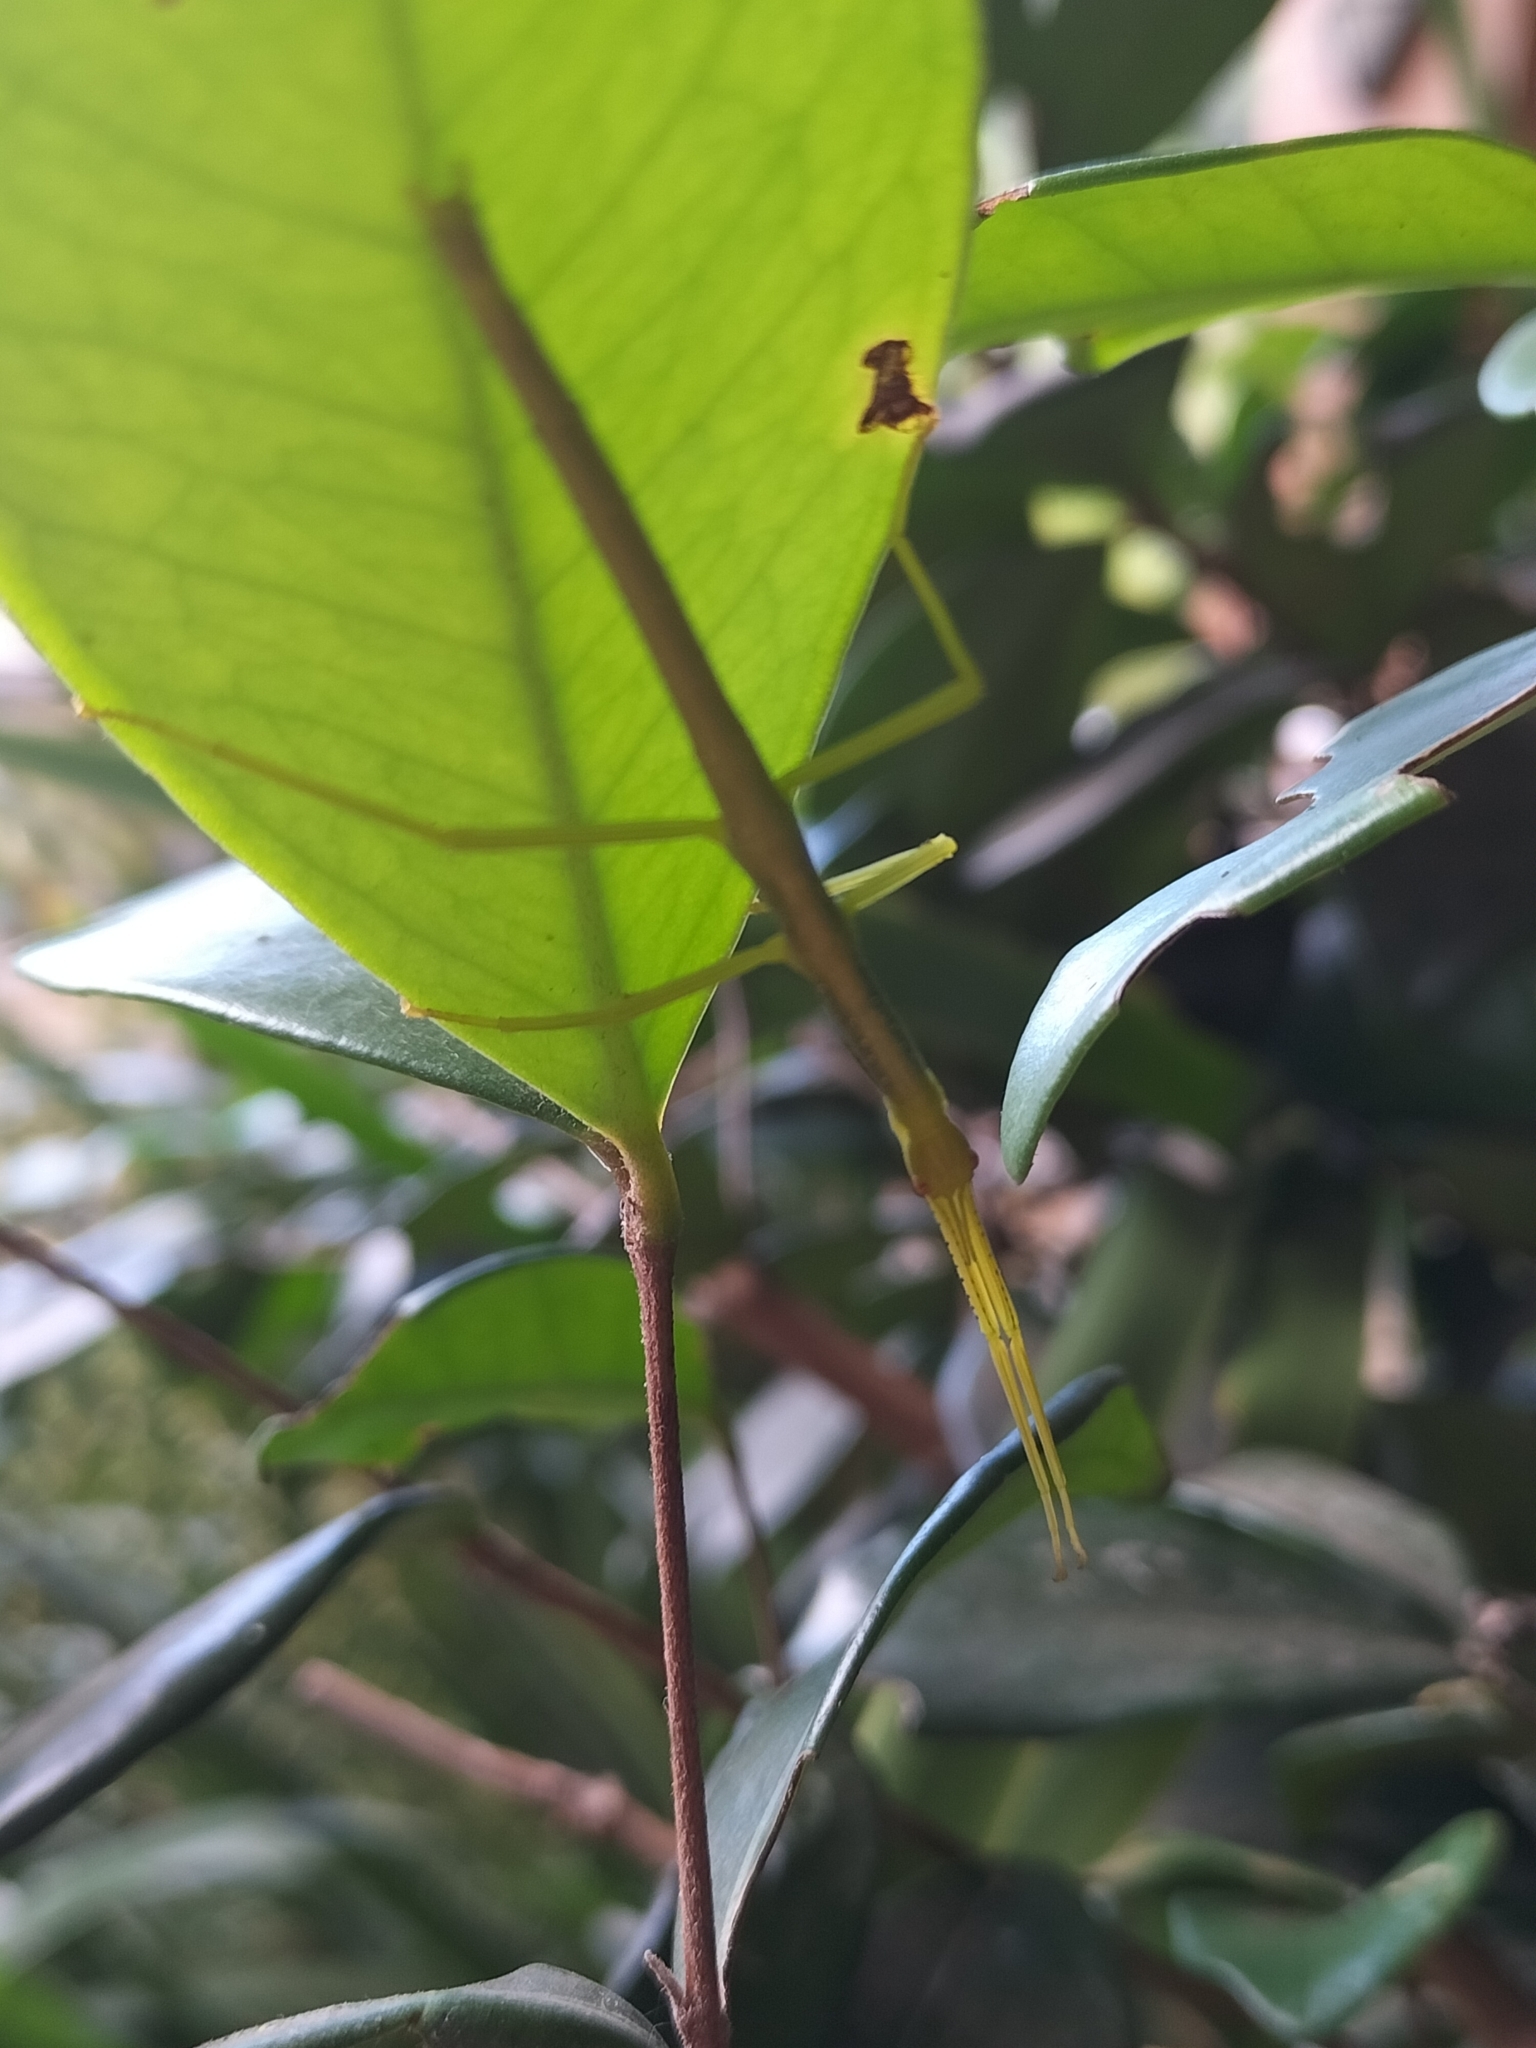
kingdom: Animalia
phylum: Arthropoda
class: Insecta
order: Phasmida
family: Phasmatidae
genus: Anchiale
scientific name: Anchiale briareus
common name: Strong stick insect
